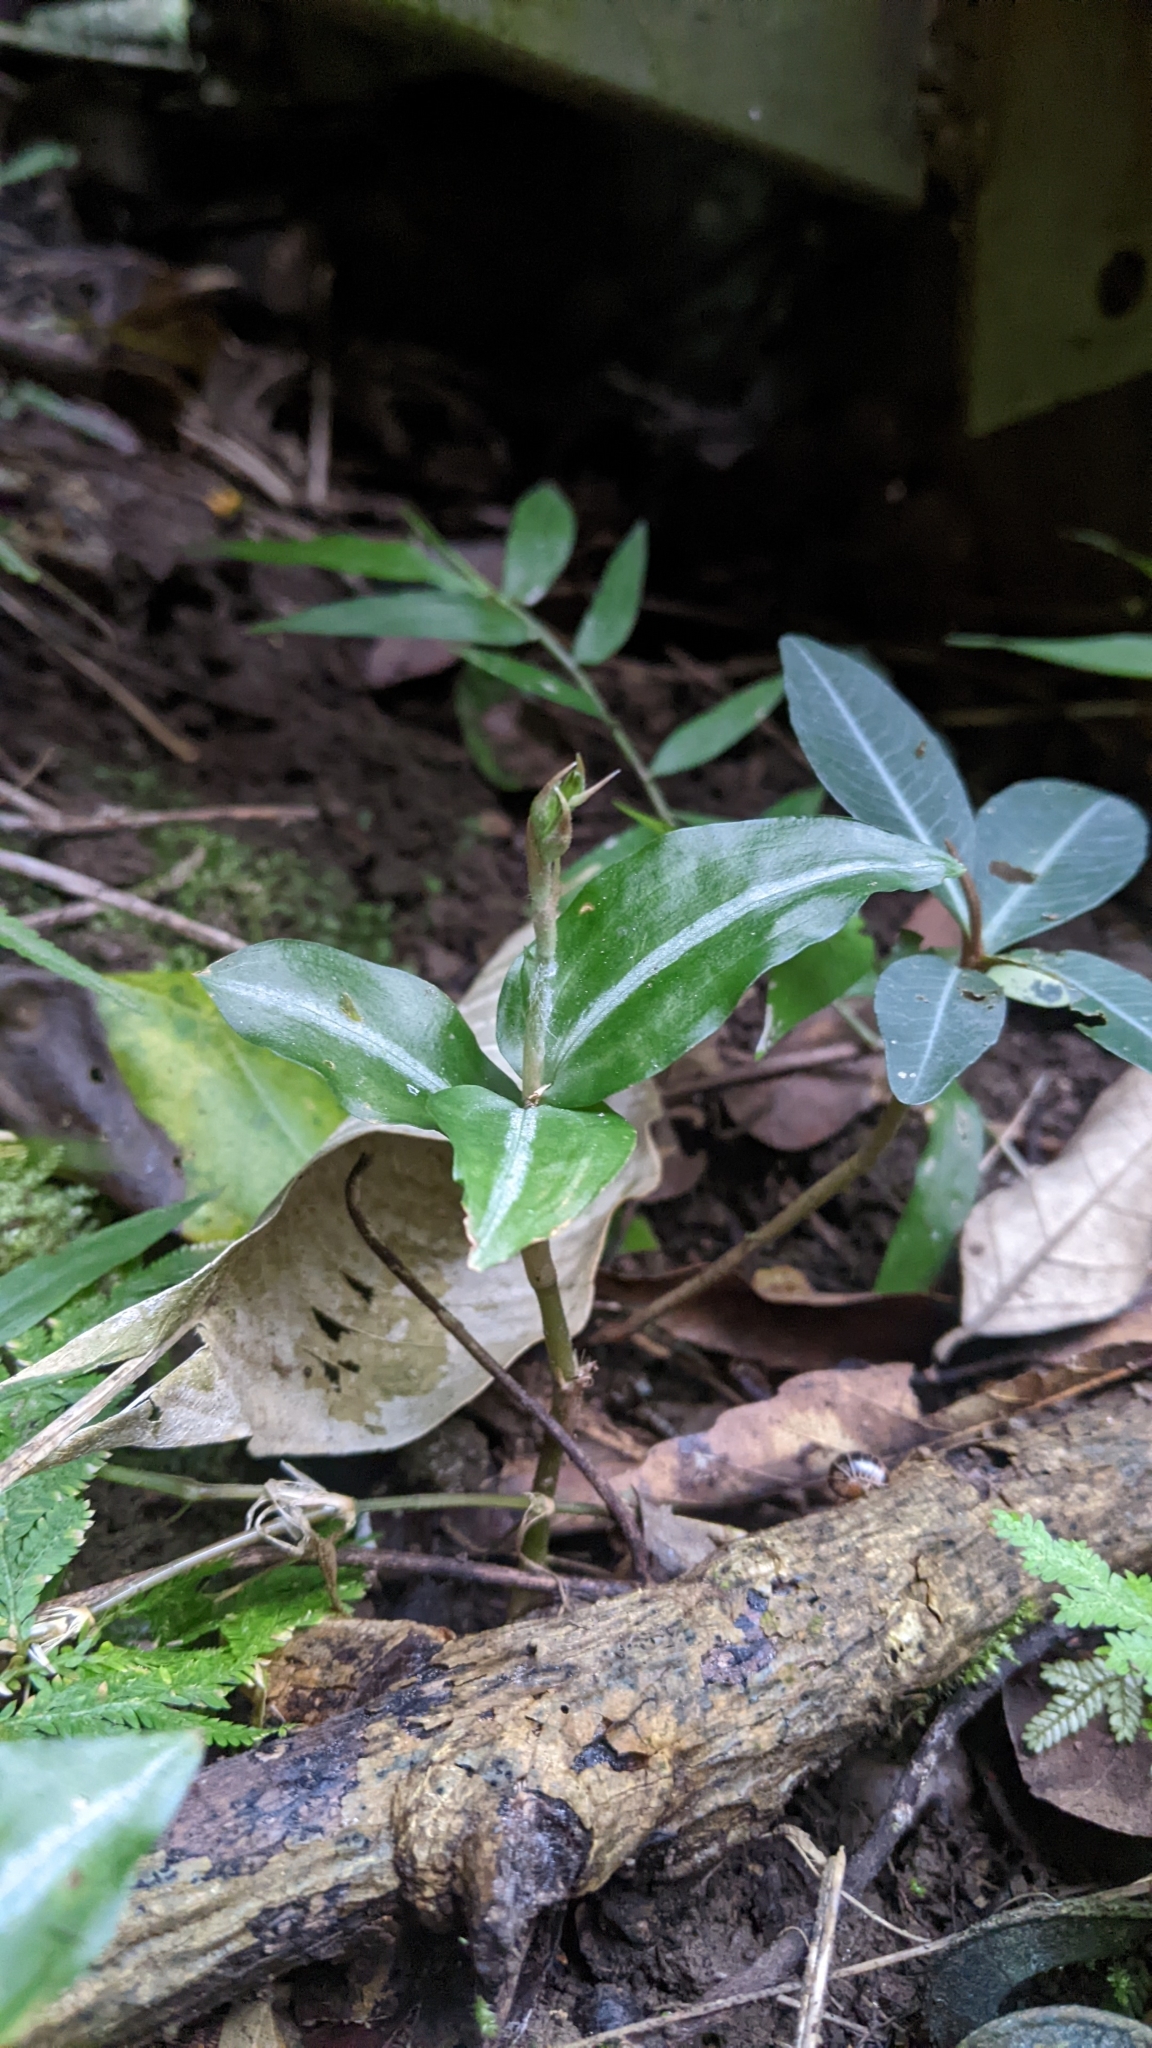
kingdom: Plantae
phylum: Tracheophyta
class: Liliopsida
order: Asparagales
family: Orchidaceae
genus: Zeuxine
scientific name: Zeuxine nervosa
